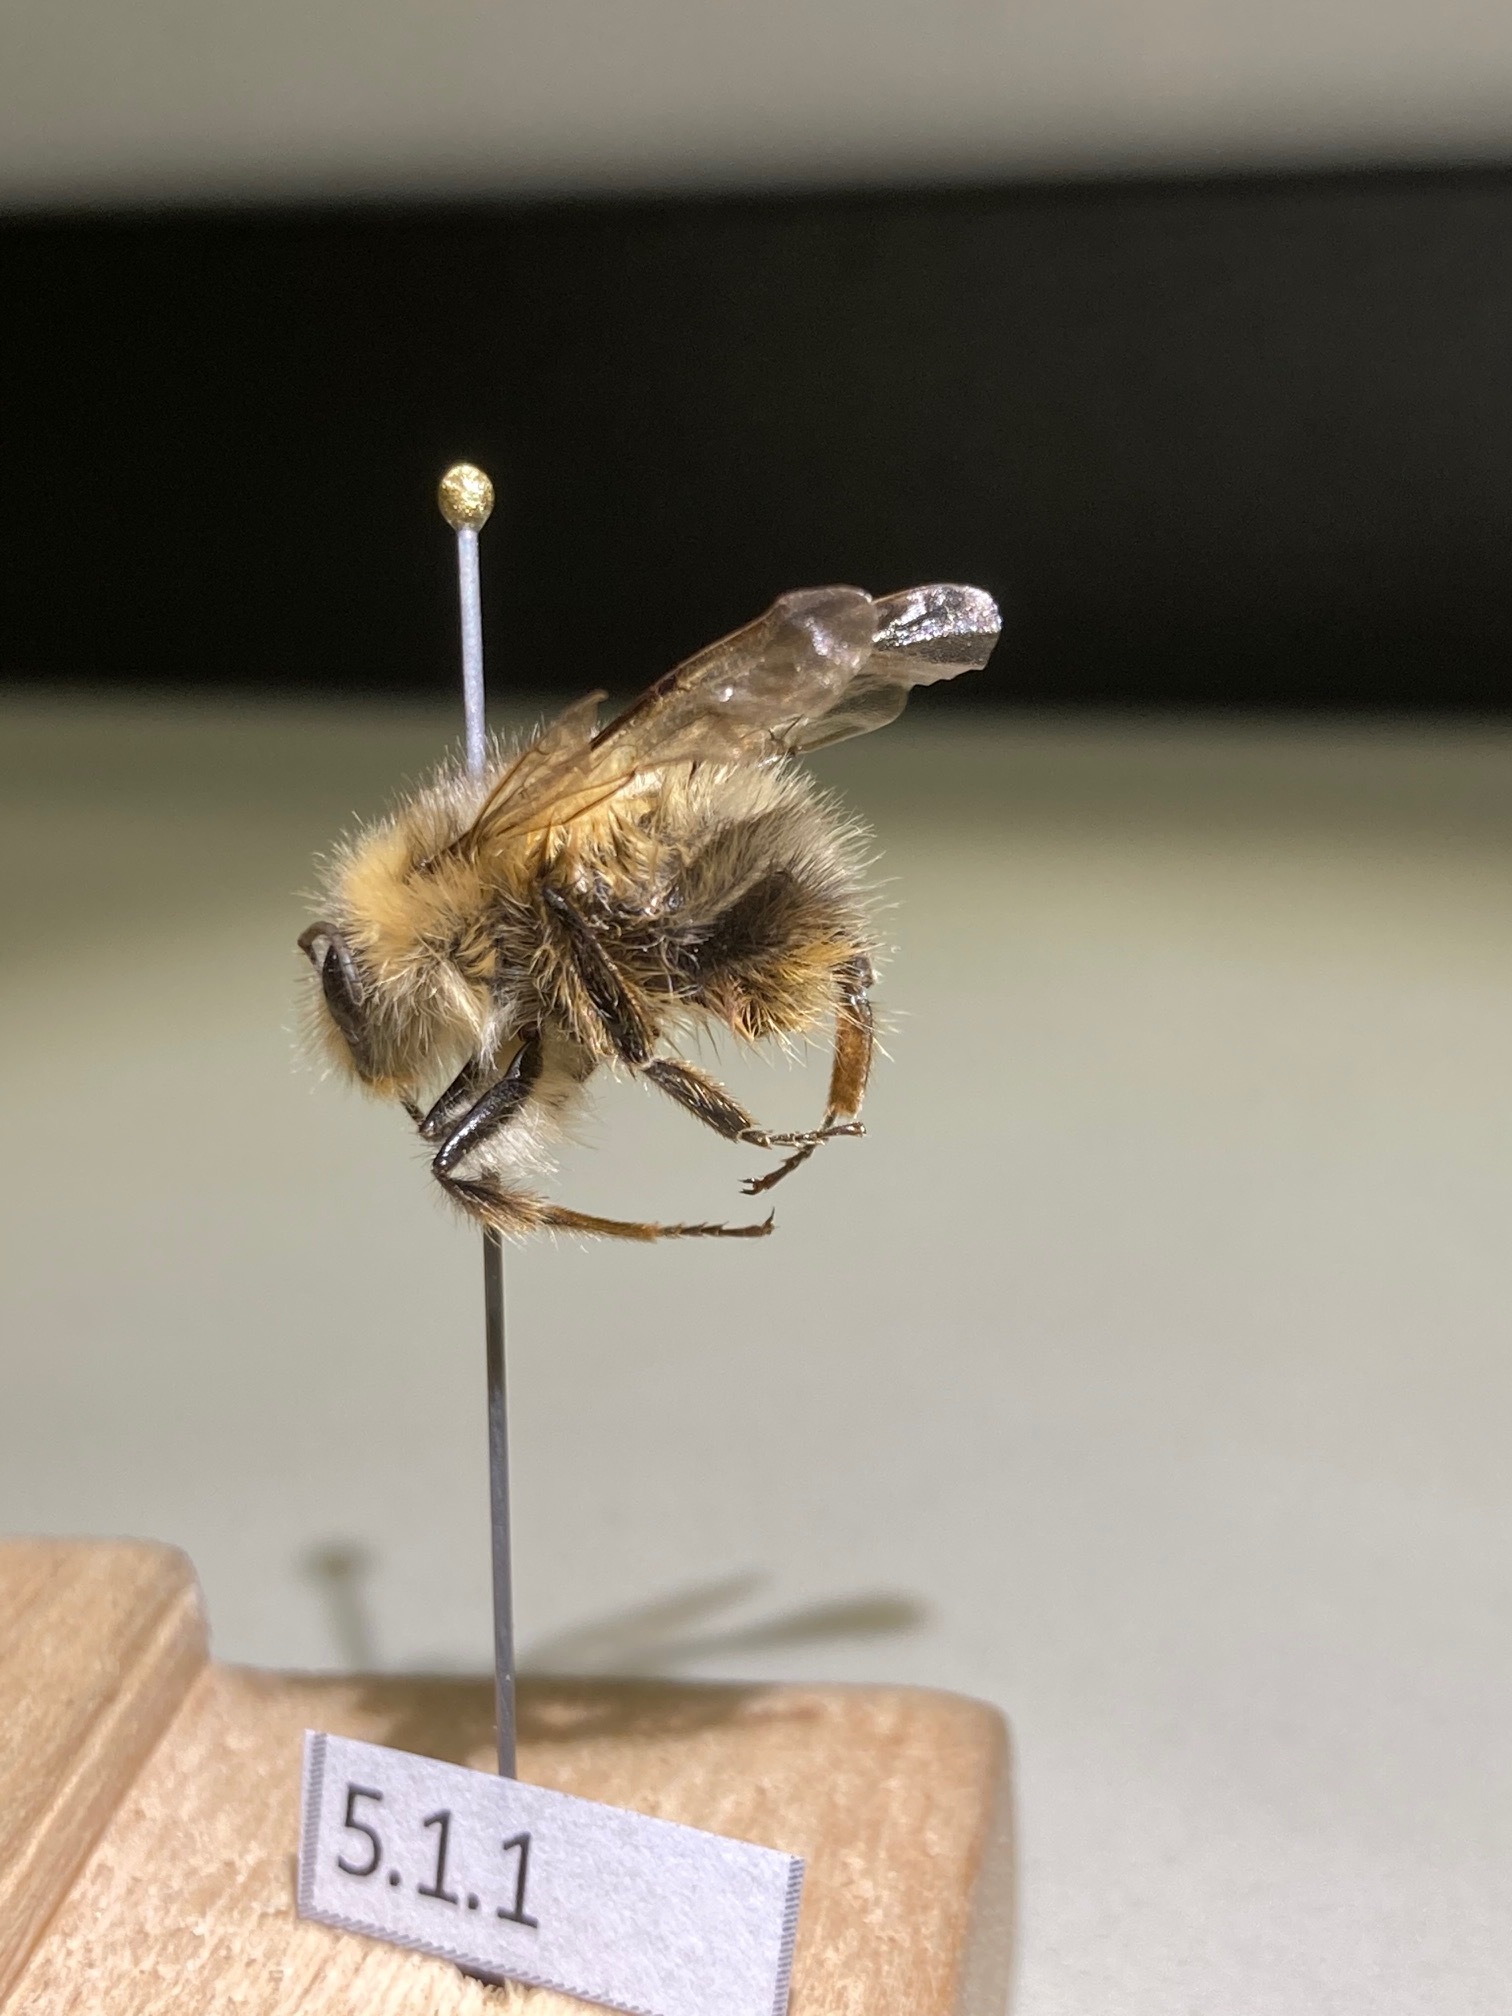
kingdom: Animalia
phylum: Arthropoda
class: Insecta
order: Hymenoptera
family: Apidae
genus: Bombus
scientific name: Bombus sitkensis
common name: Sitka bumble bee
